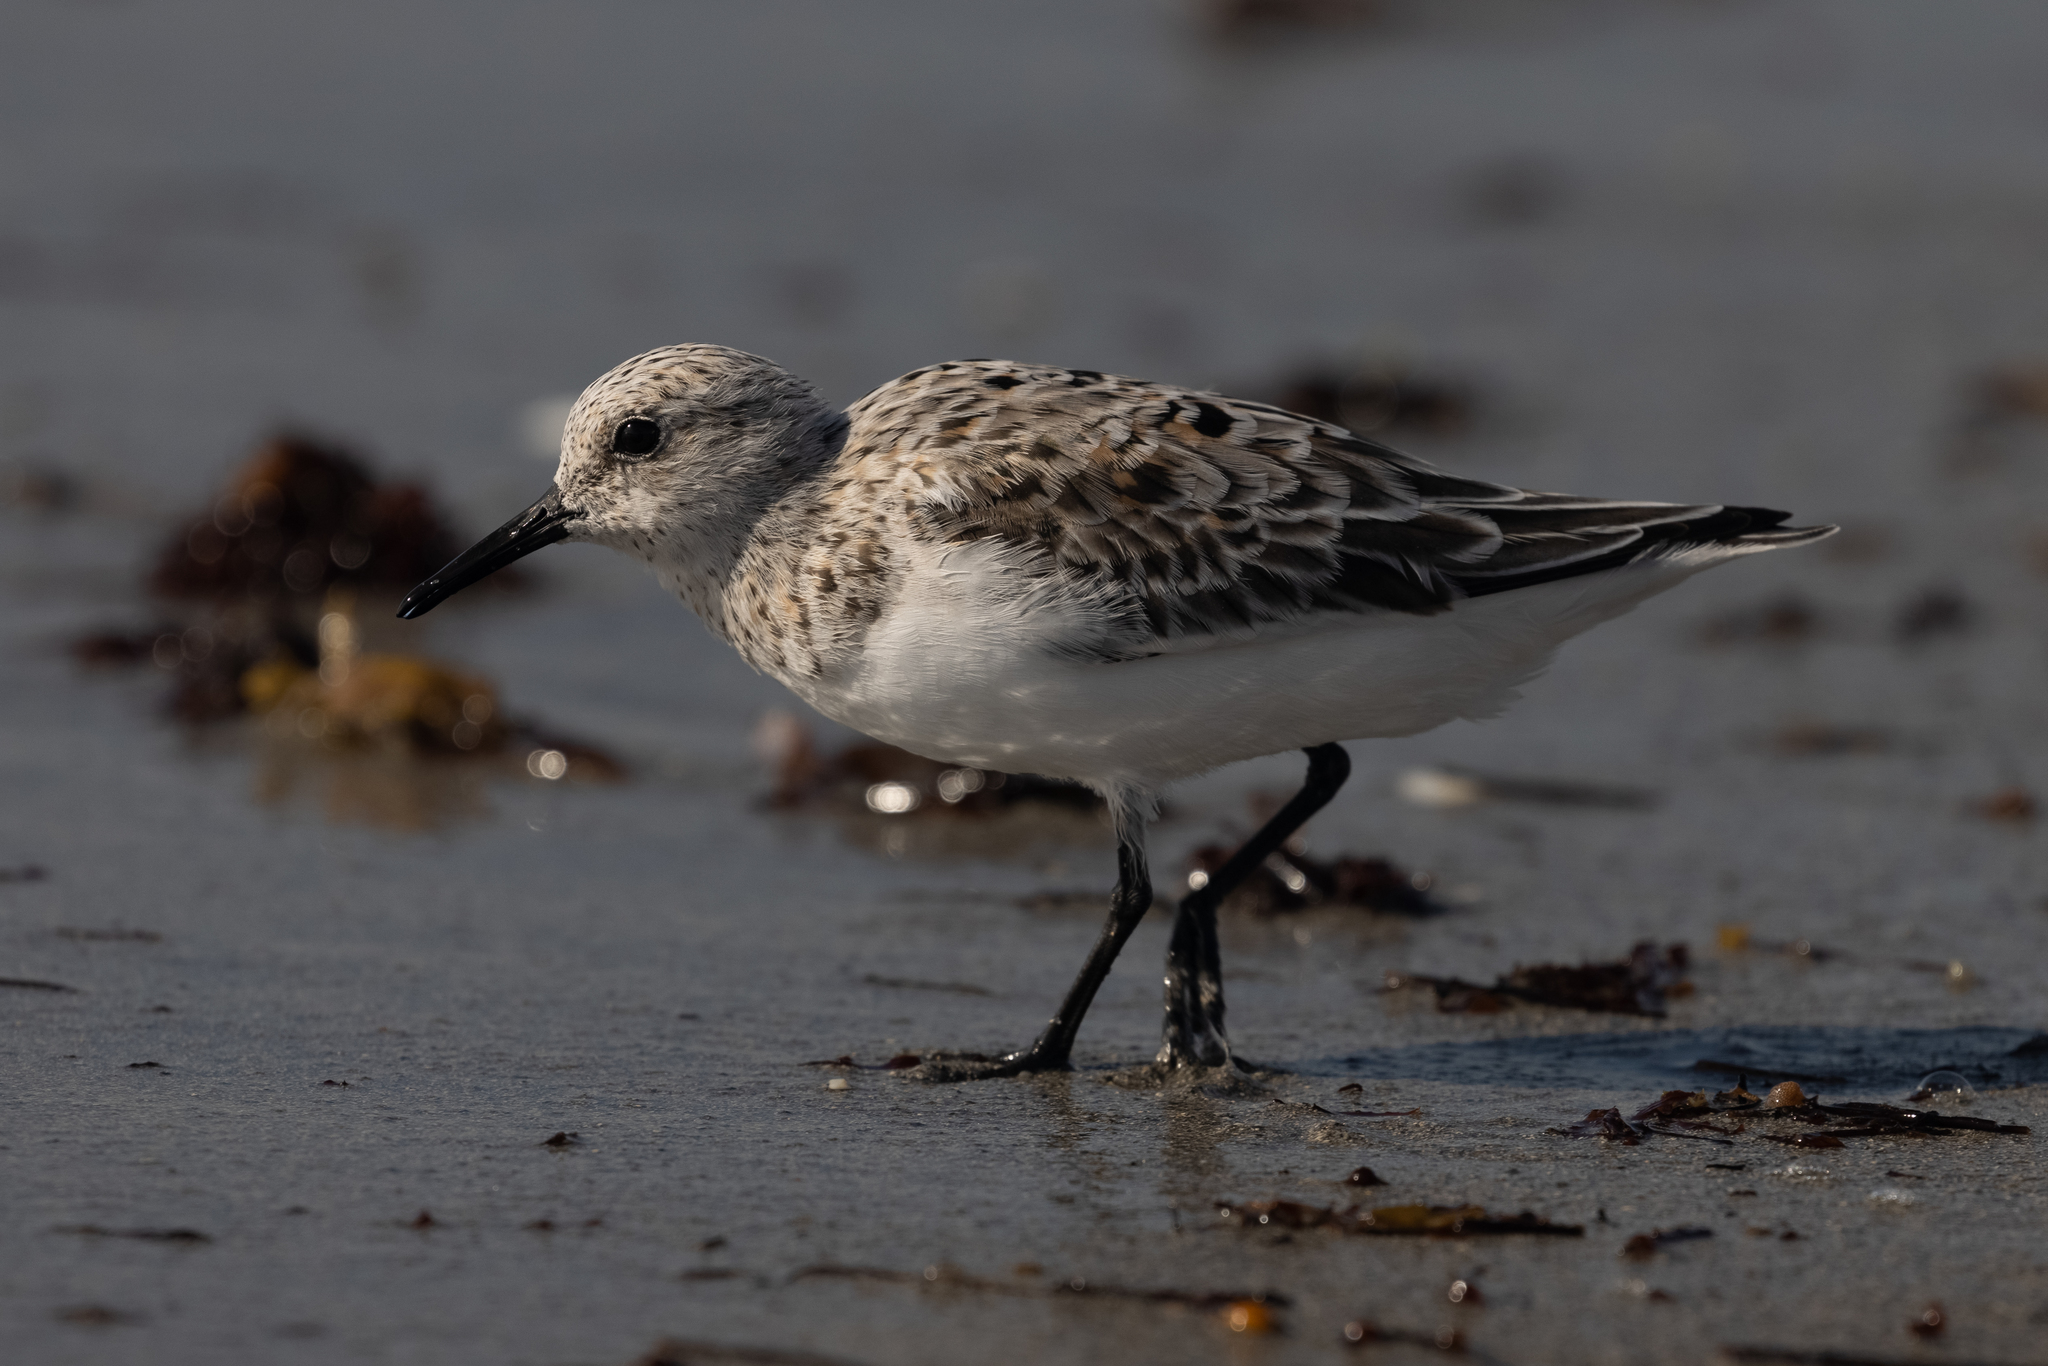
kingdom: Animalia
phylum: Chordata
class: Aves
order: Charadriiformes
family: Scolopacidae
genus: Calidris
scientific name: Calidris alba
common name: Sanderling
